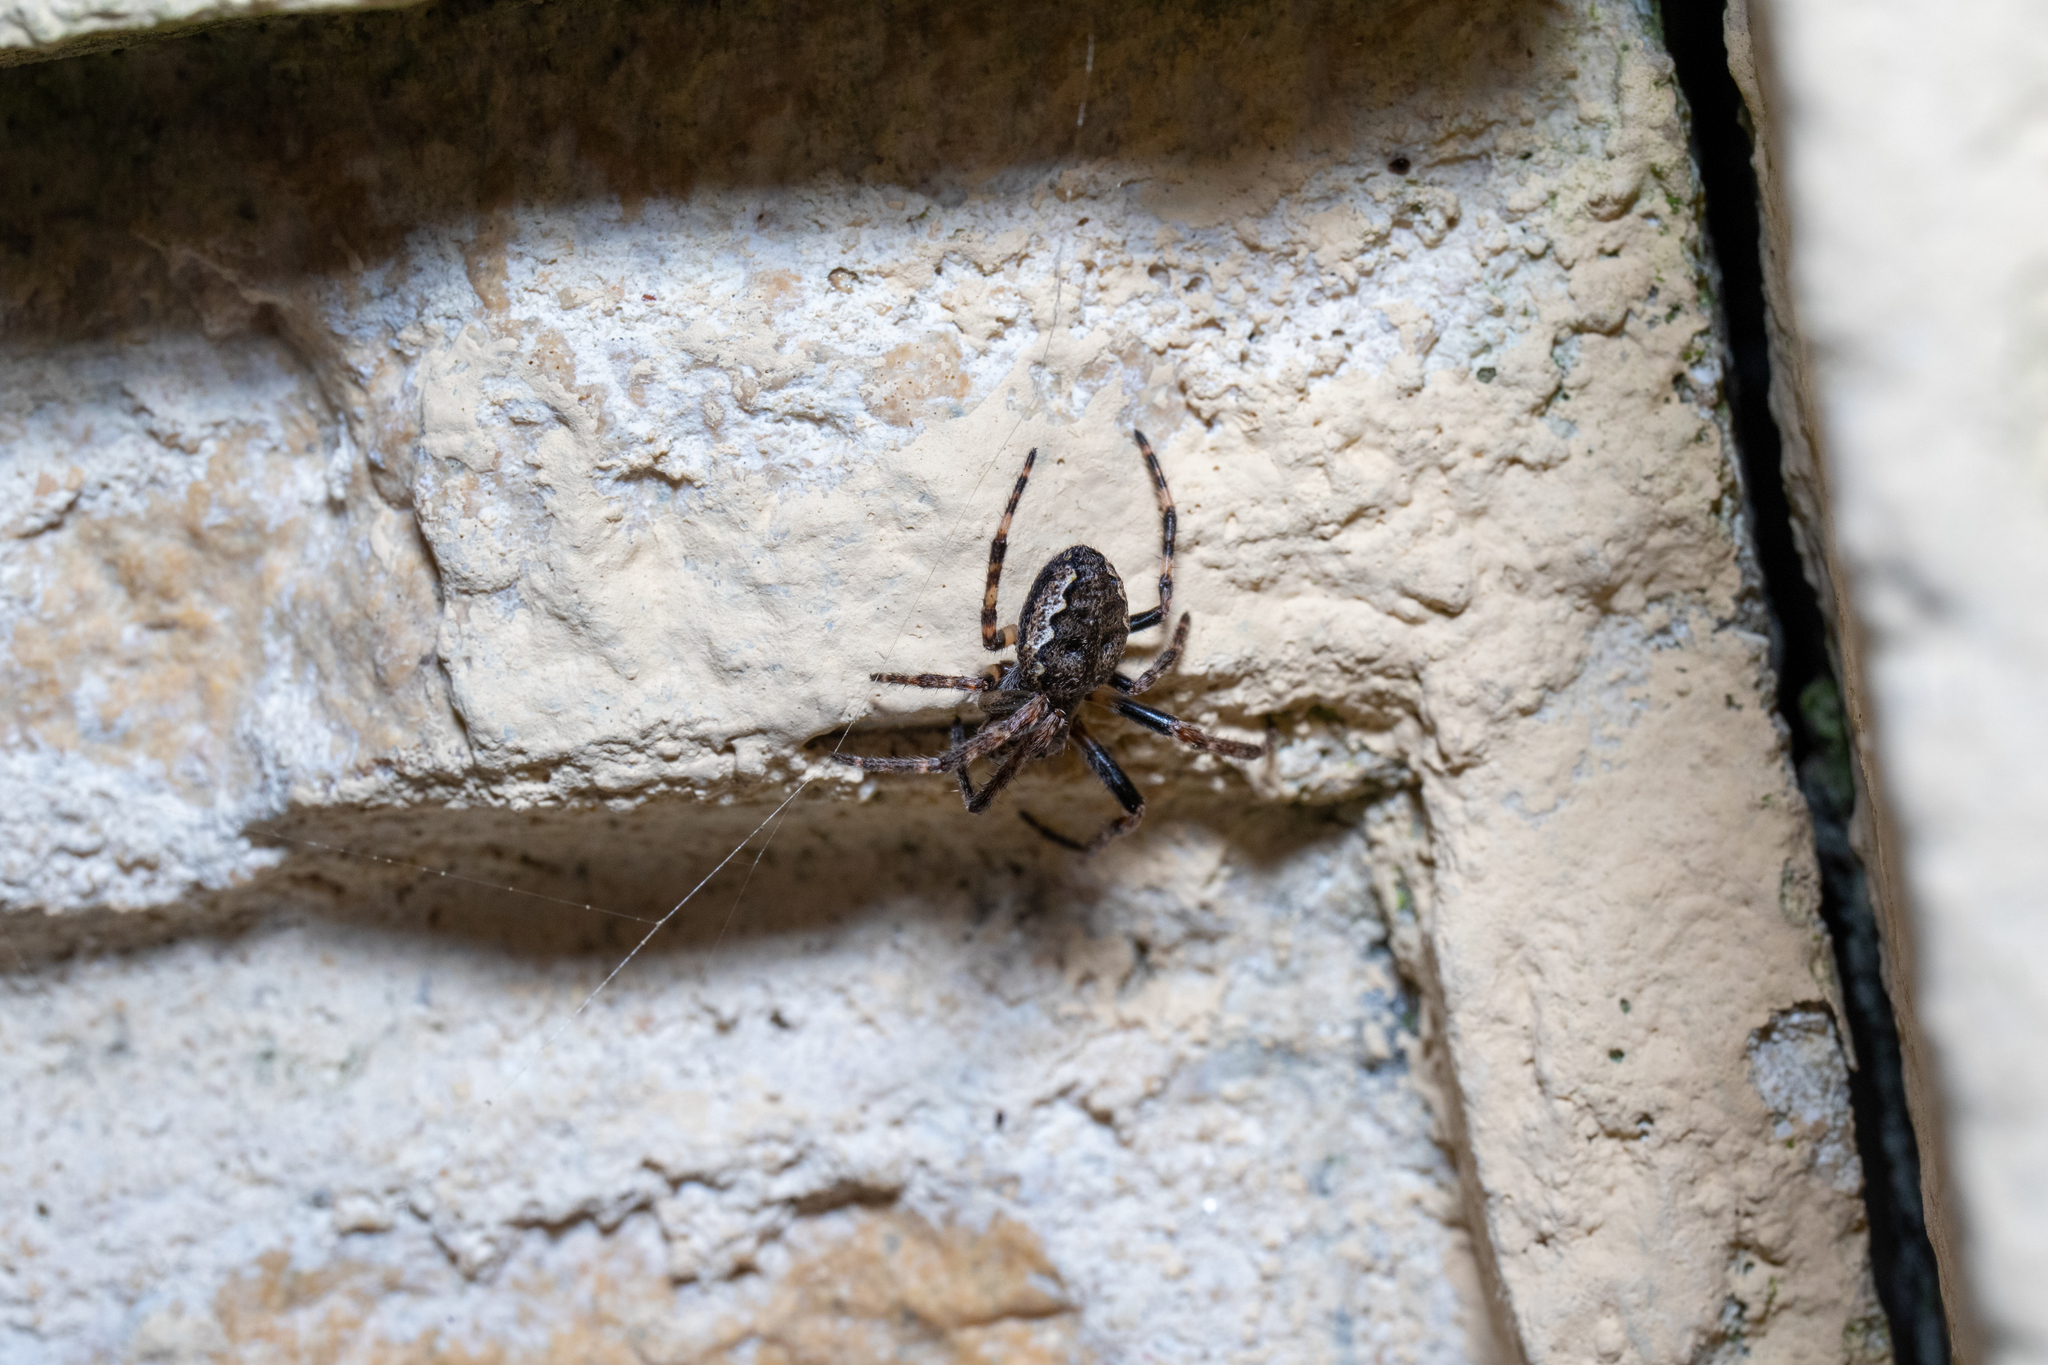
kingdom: Animalia
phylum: Arthropoda
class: Arachnida
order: Araneae
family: Araneidae
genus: Nuctenea
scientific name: Nuctenea umbratica
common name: Toad spider
